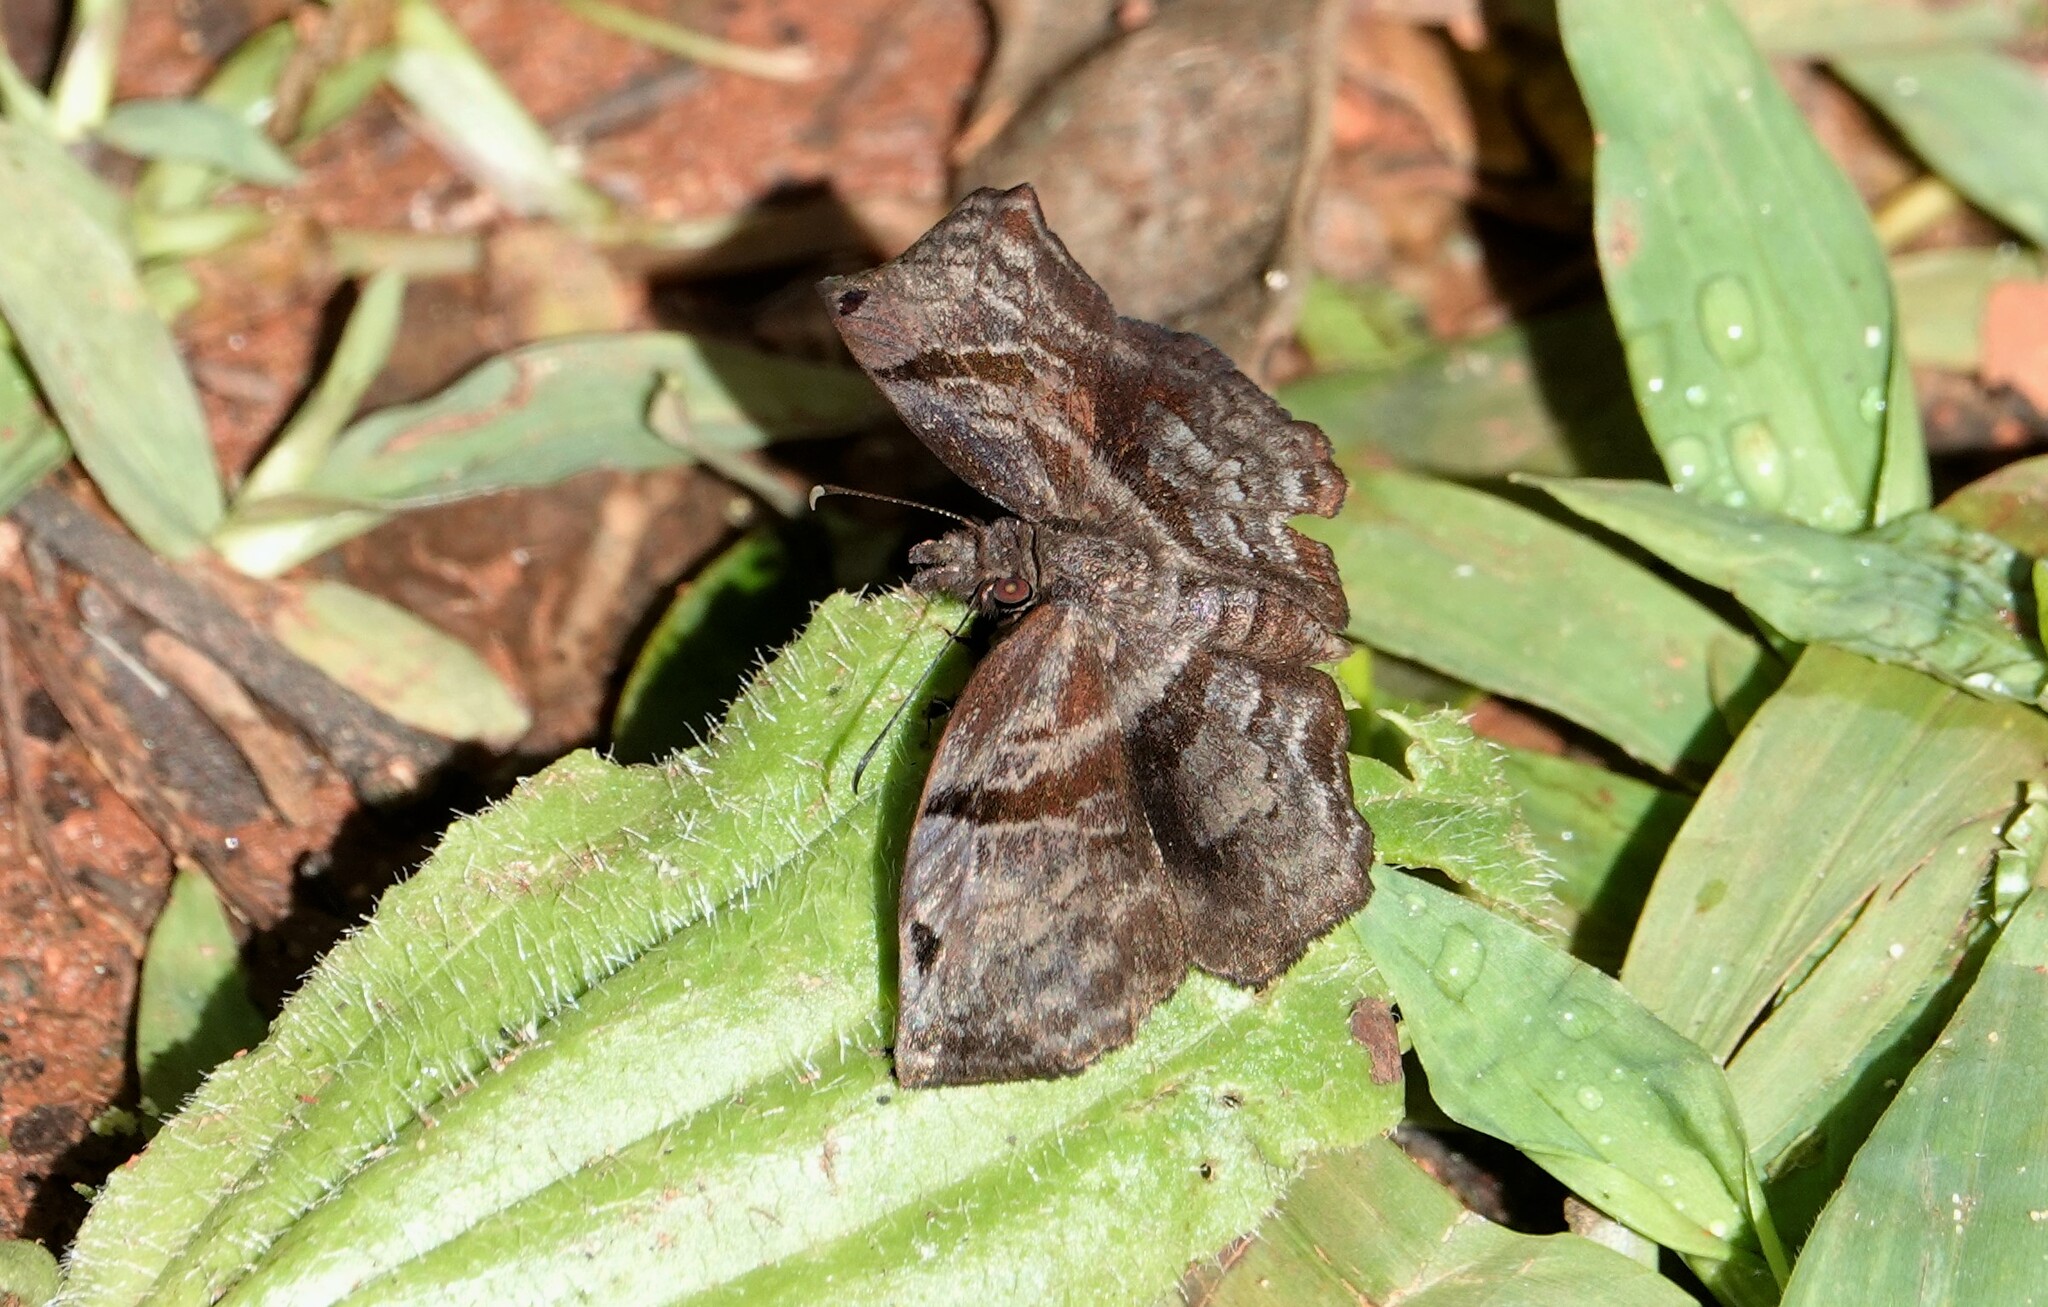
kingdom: Animalia
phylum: Arthropoda
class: Insecta
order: Lepidoptera
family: Hesperiidae
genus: Helias
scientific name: Helias phalaenoides
